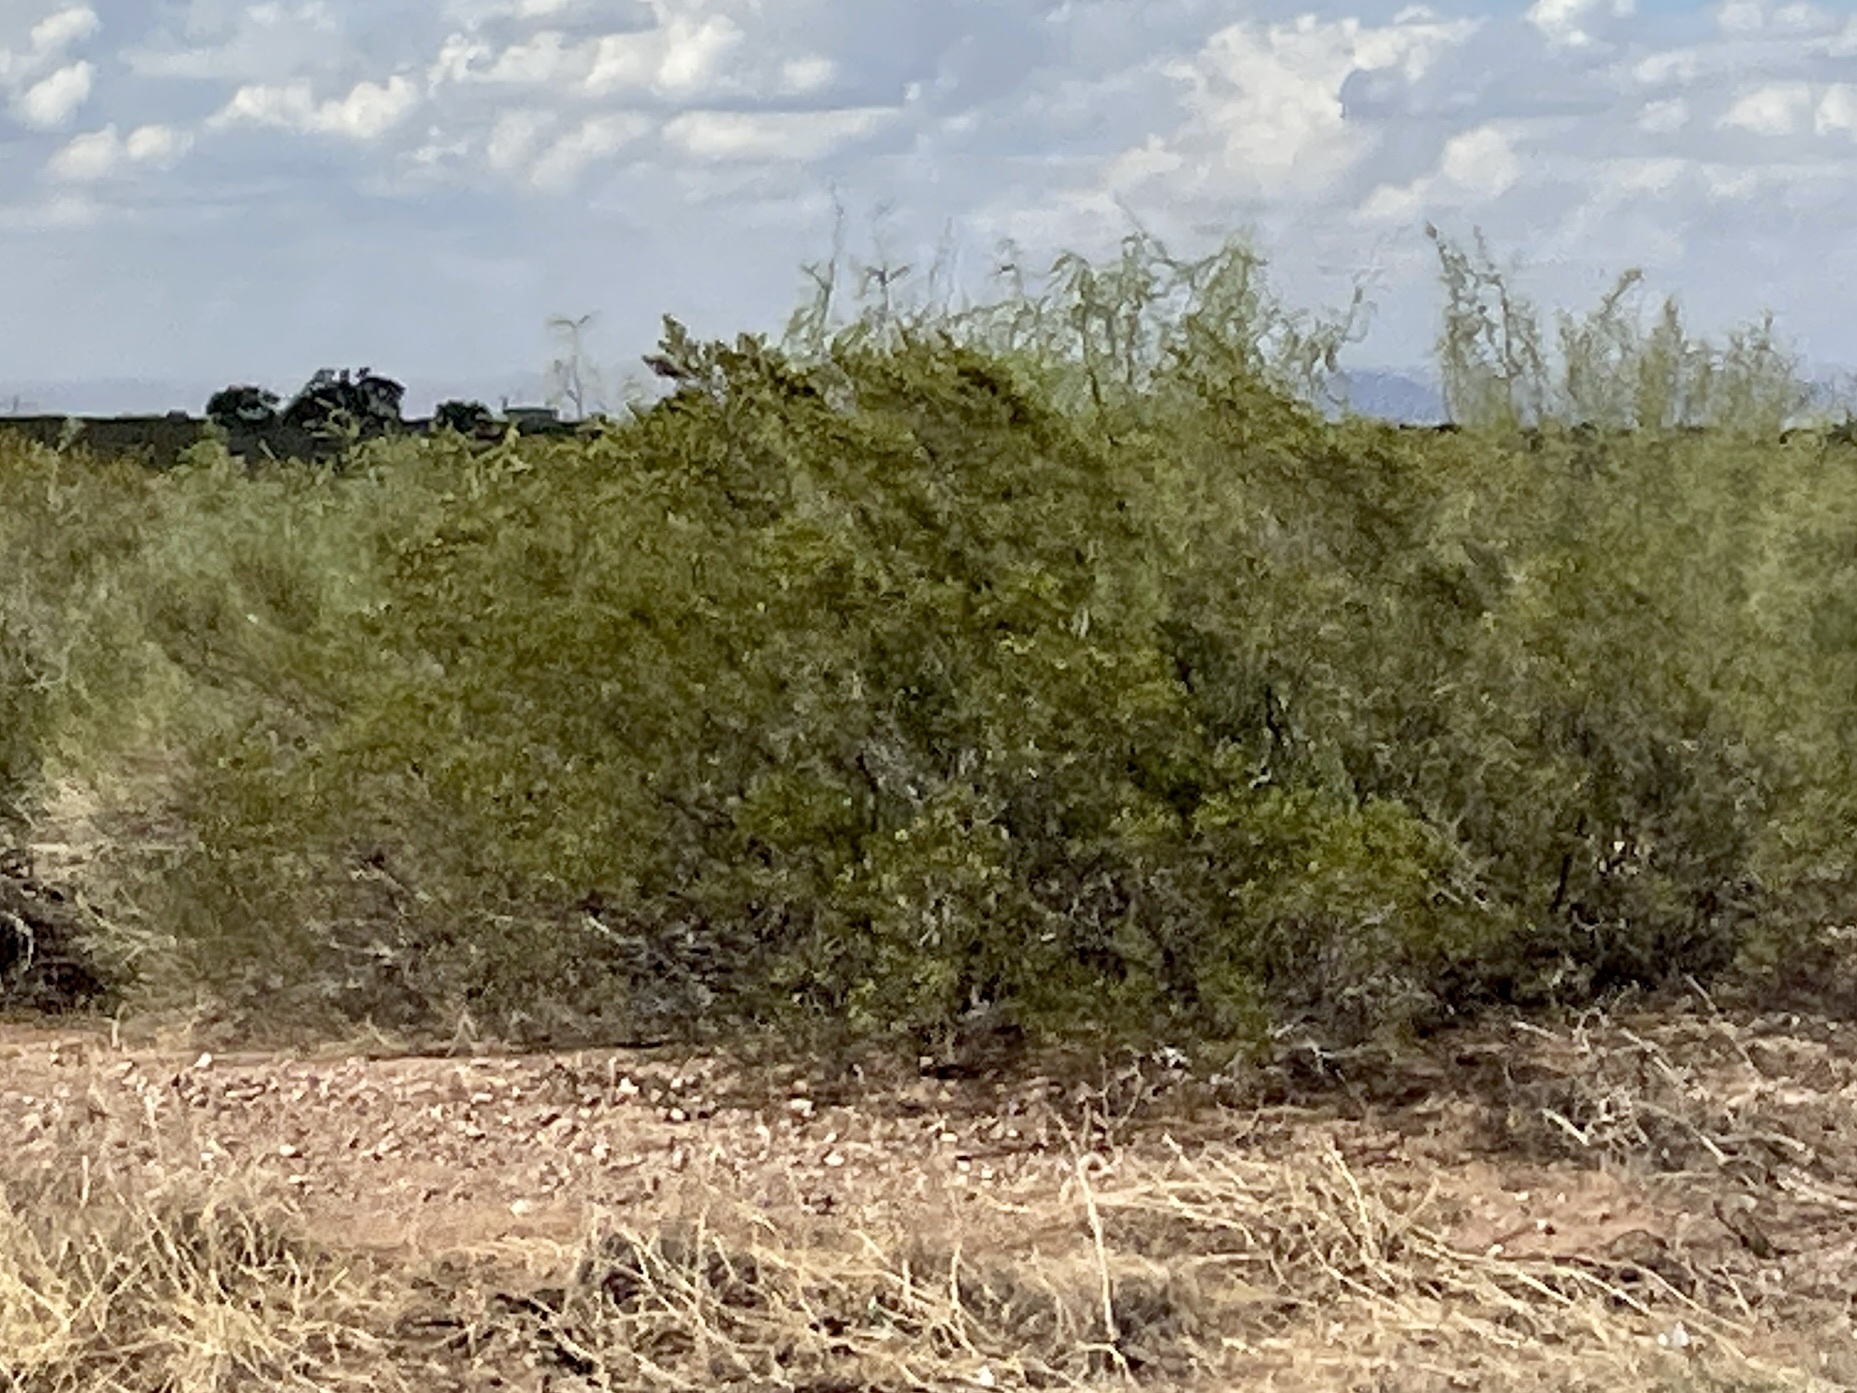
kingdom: Plantae
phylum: Tracheophyta
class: Magnoliopsida
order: Zygophyllales
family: Zygophyllaceae
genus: Larrea
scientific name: Larrea tridentata
